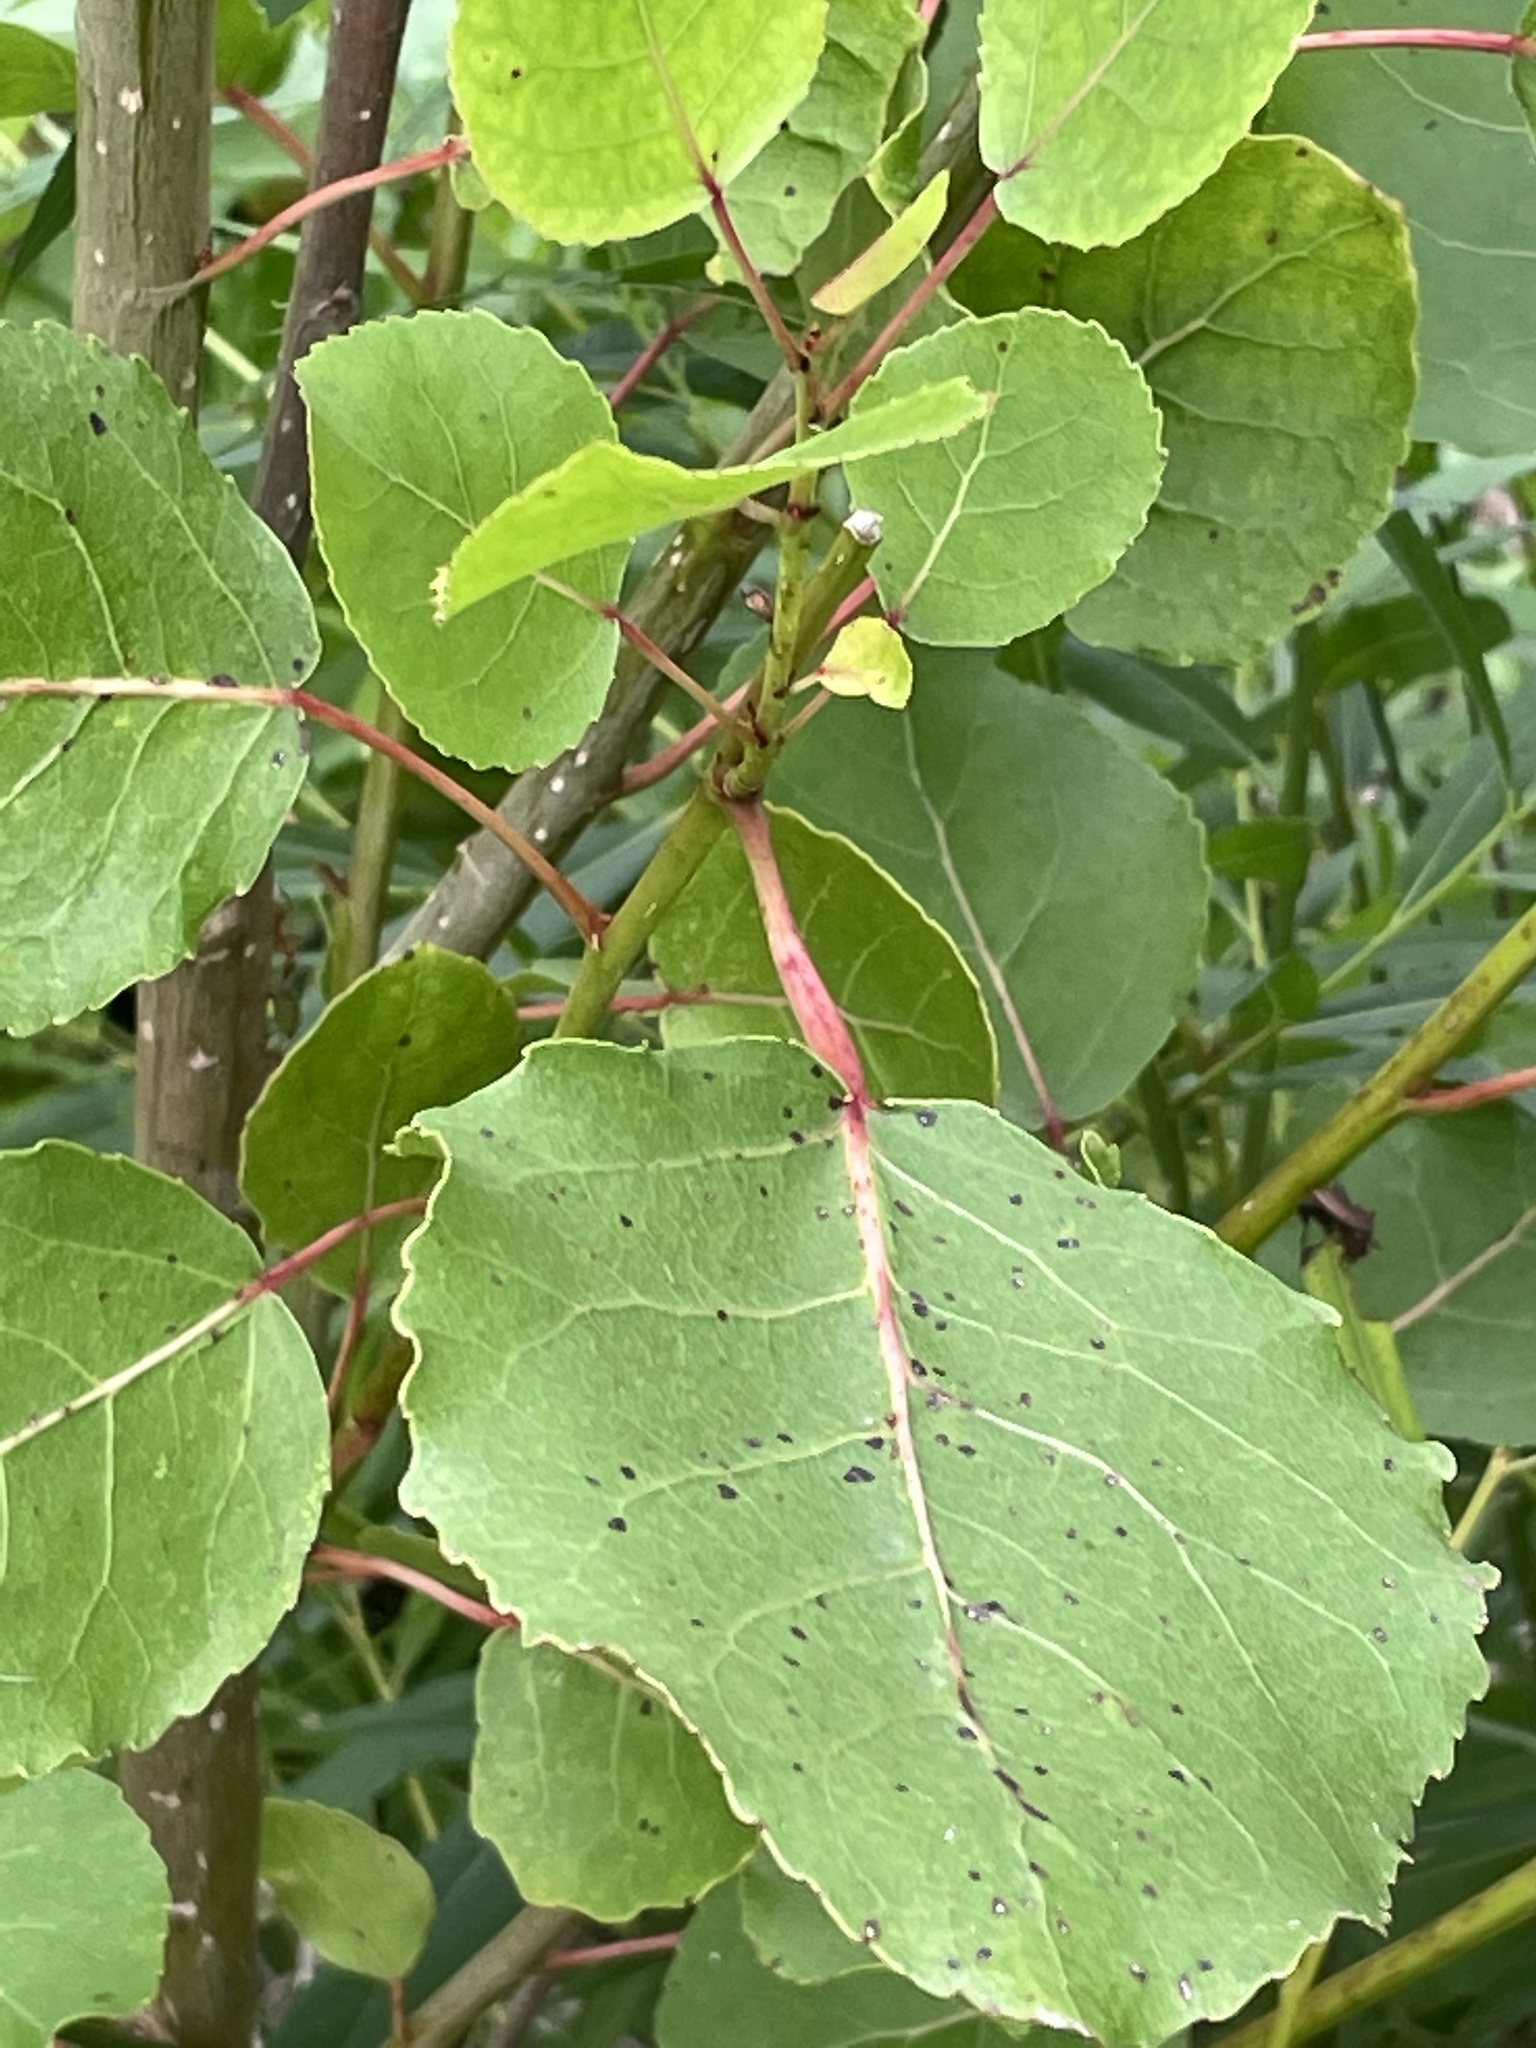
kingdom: Plantae
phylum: Tracheophyta
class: Magnoliopsida
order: Malpighiales
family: Salicaceae
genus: Populus
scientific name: Populus deltoides
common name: Eastern cottonwood
